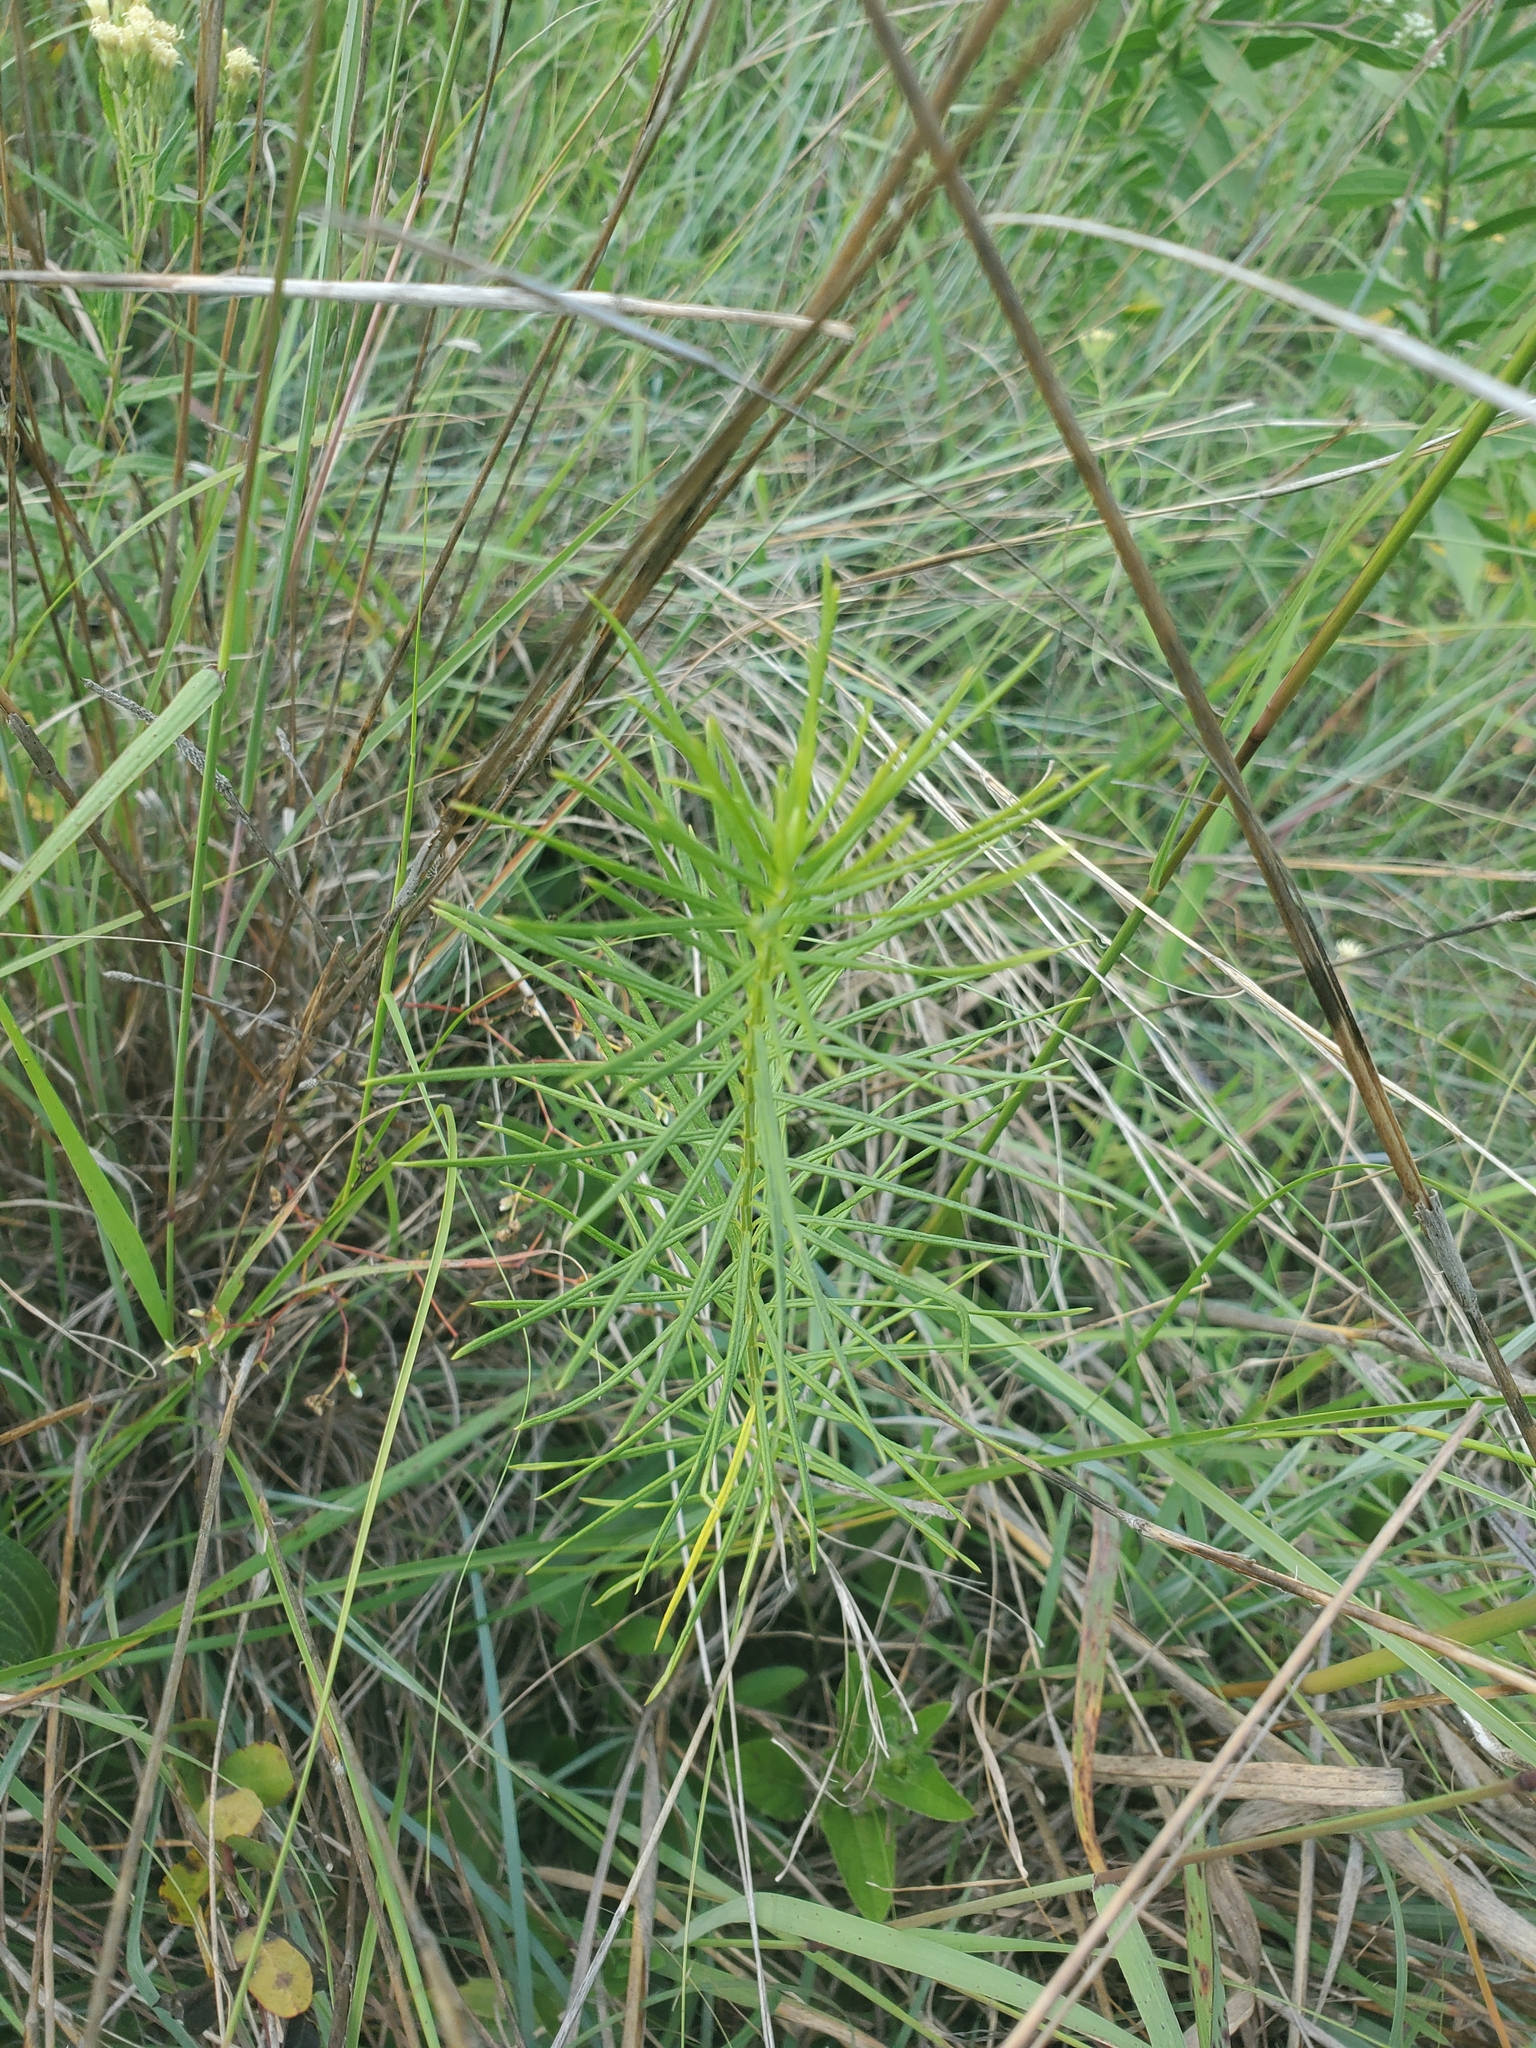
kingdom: Plantae
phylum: Tracheophyta
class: Magnoliopsida
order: Gentianales
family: Apocynaceae
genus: Asclepias
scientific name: Asclepias verticillata
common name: Eastern whorled milkweed
